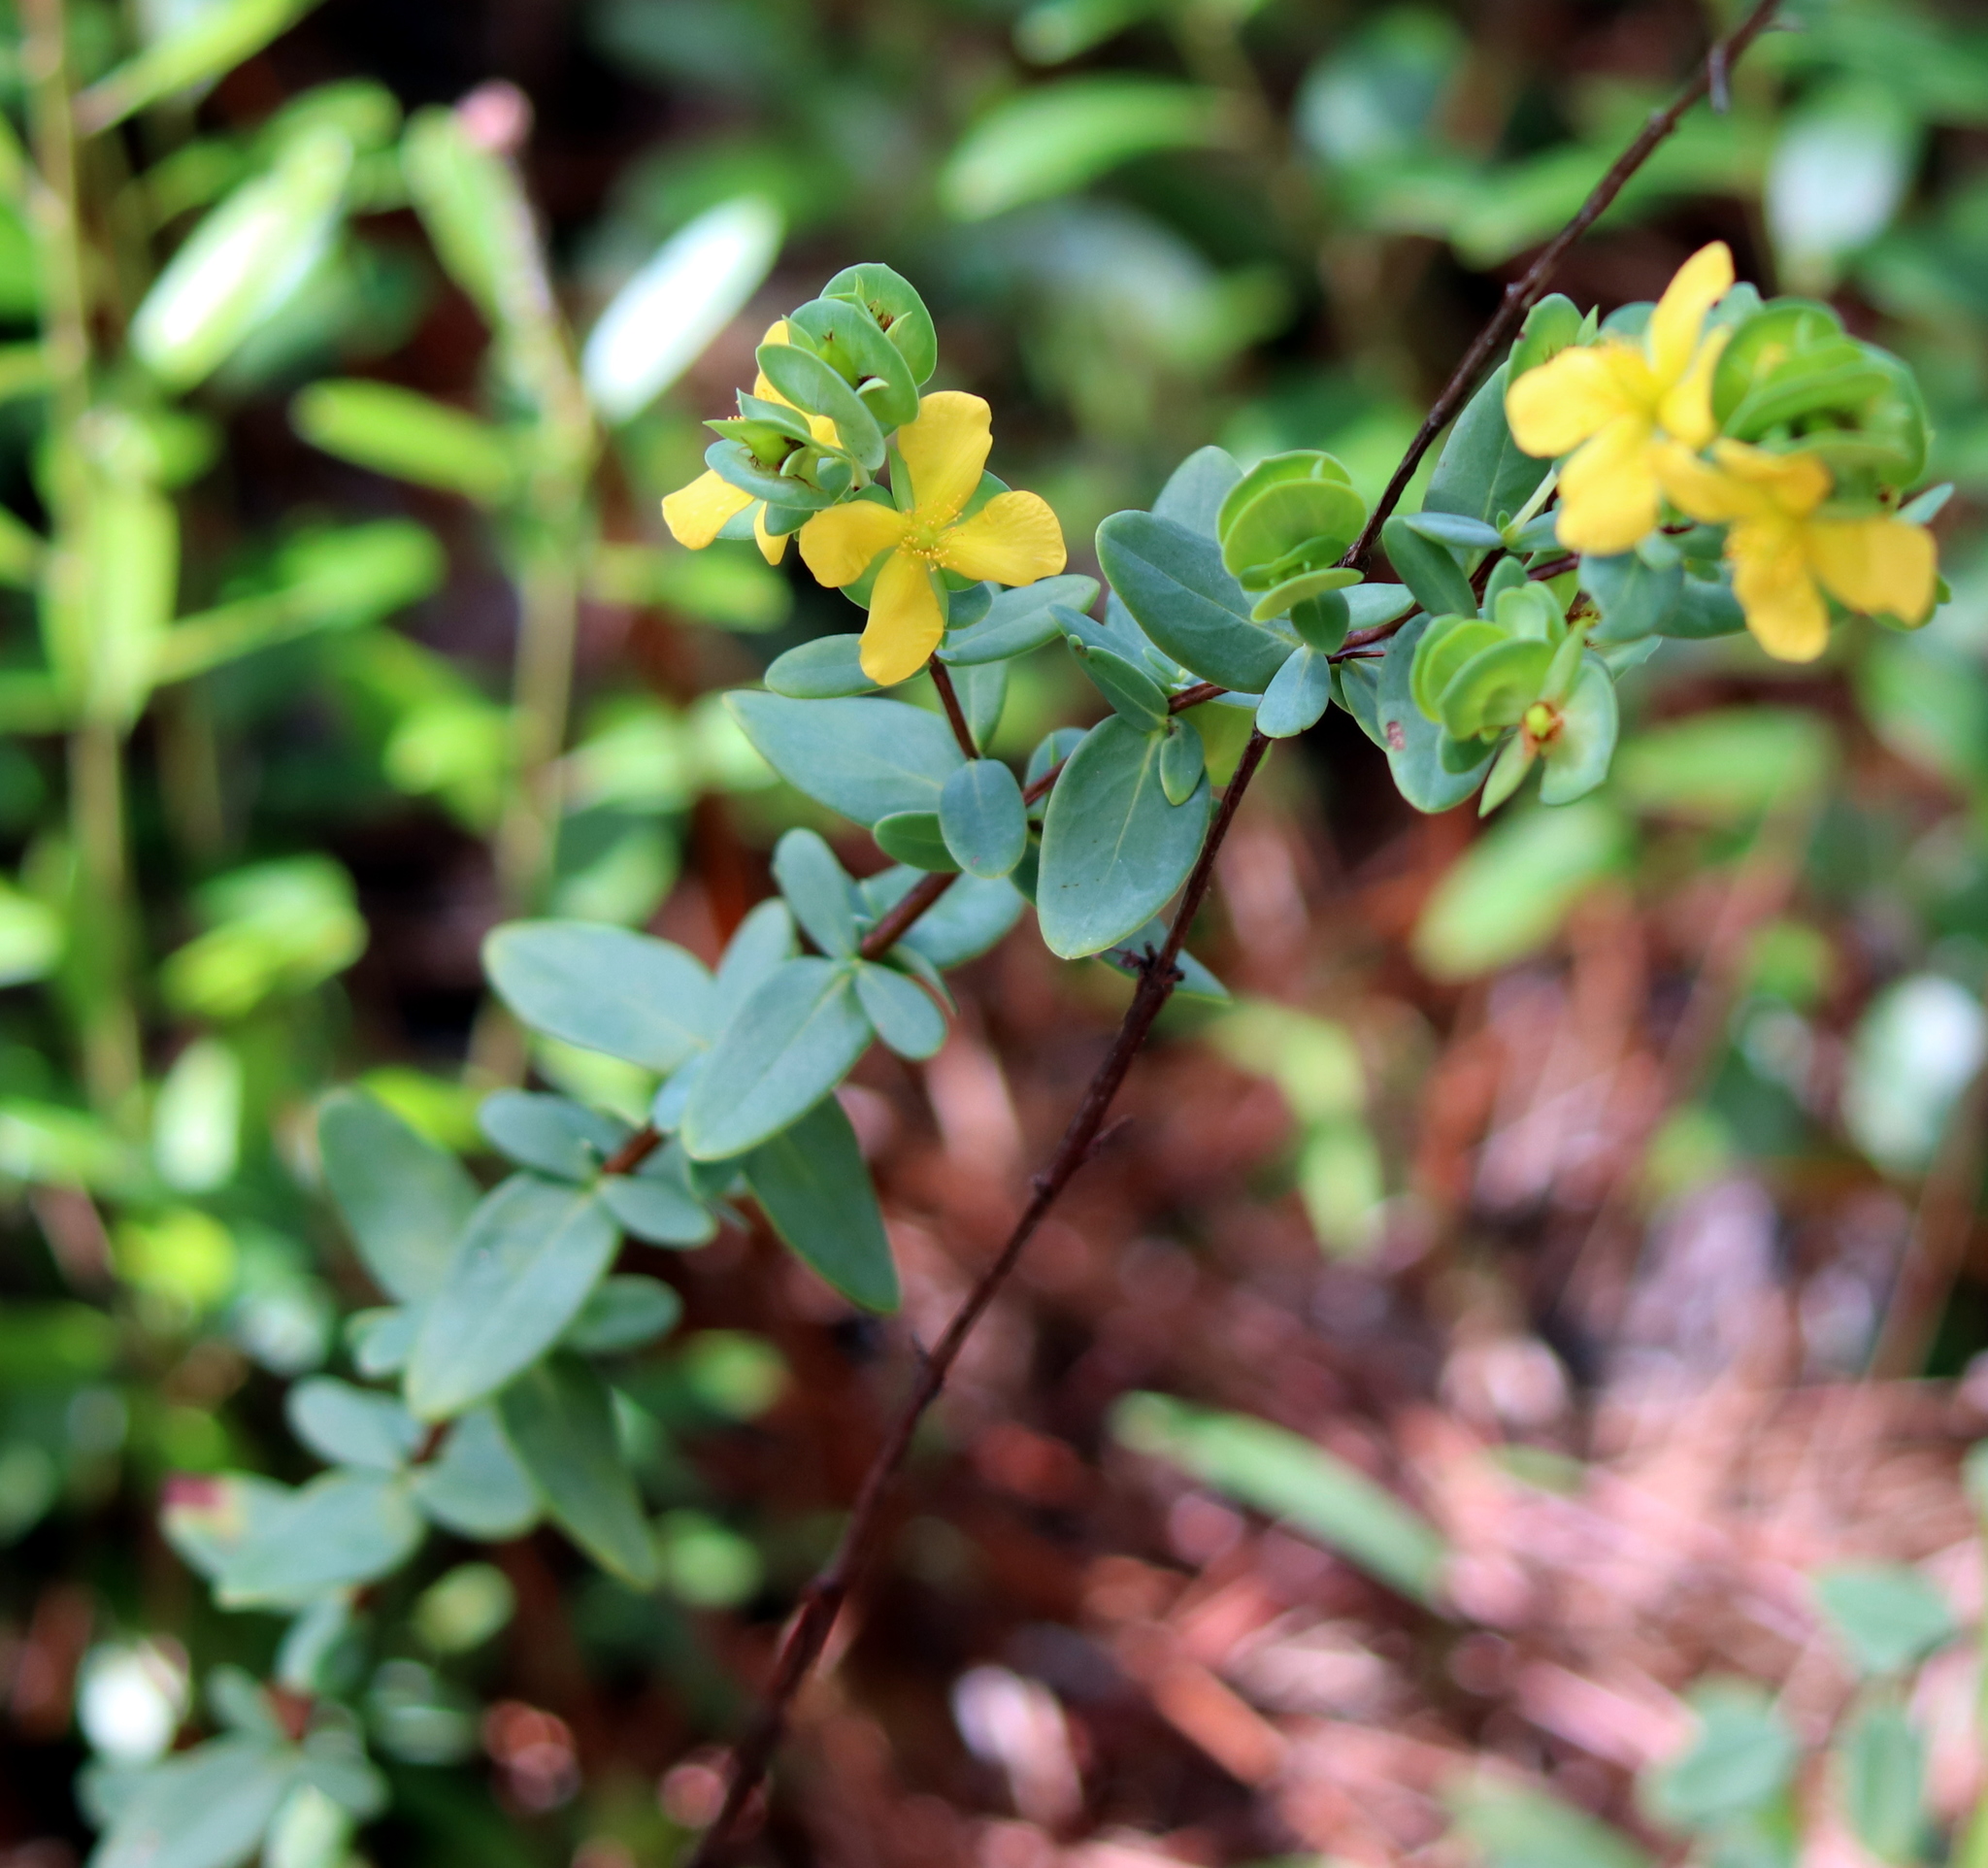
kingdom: Plantae
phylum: Tracheophyta
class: Magnoliopsida
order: Malpighiales
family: Hypericaceae
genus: Hypericum
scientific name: Hypericum crux-andreae
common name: St.-peter's-wort
